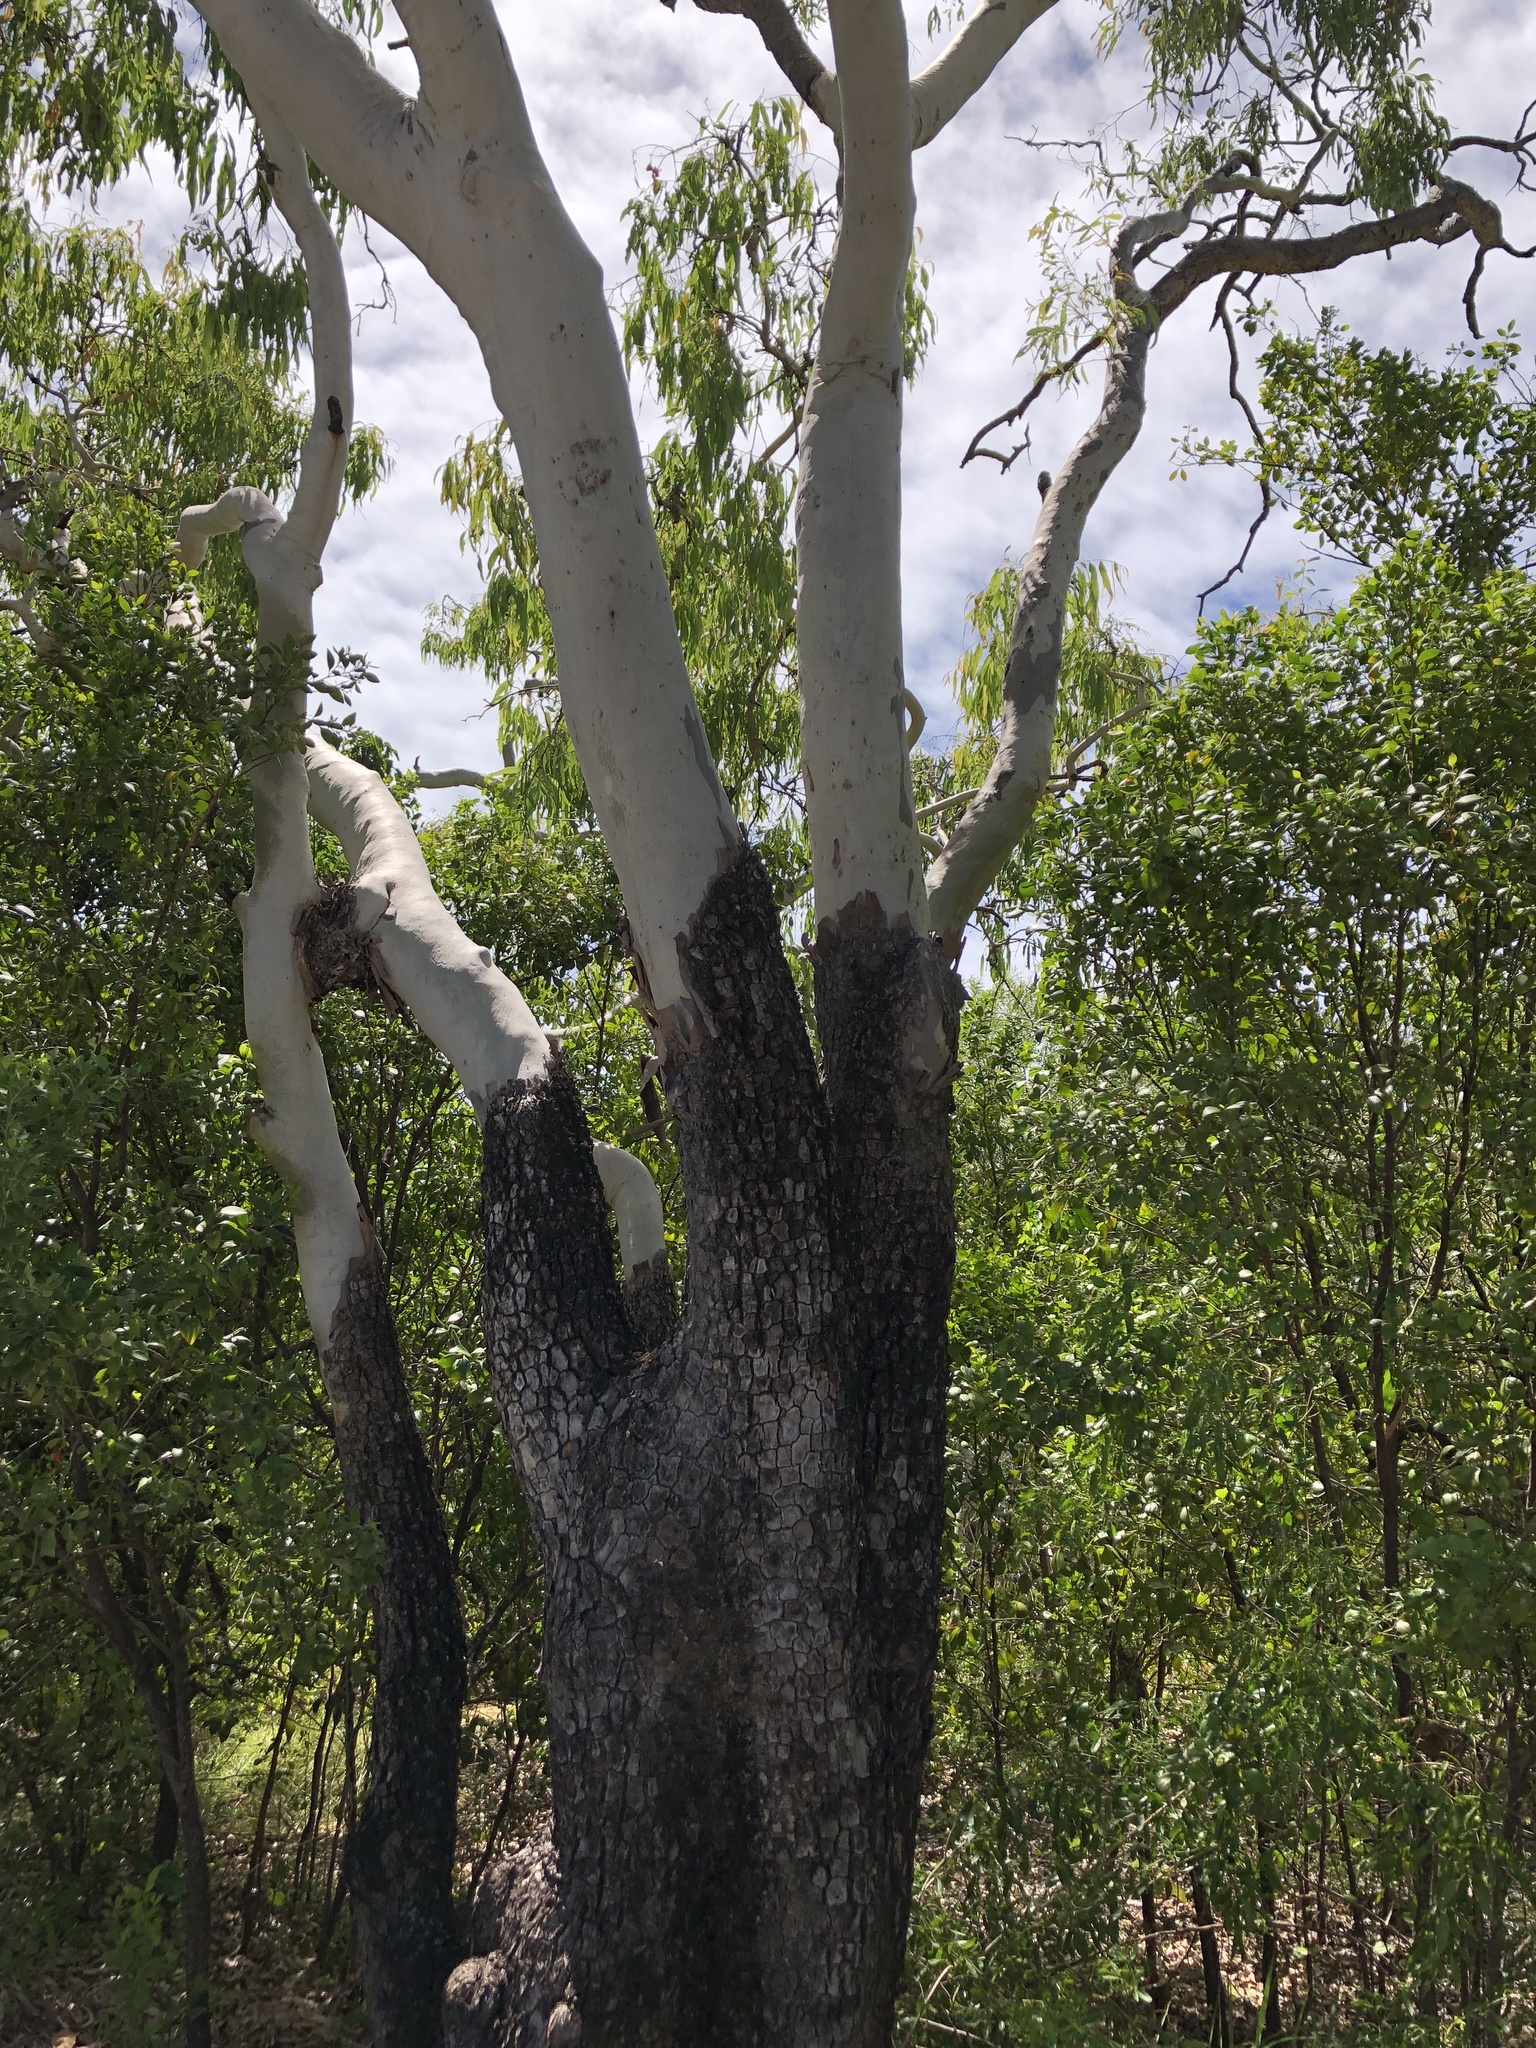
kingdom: Plantae
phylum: Tracheophyta
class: Magnoliopsida
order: Myrtales
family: Myrtaceae
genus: Corymbia
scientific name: Corymbia tessellaris
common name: Carbeen
